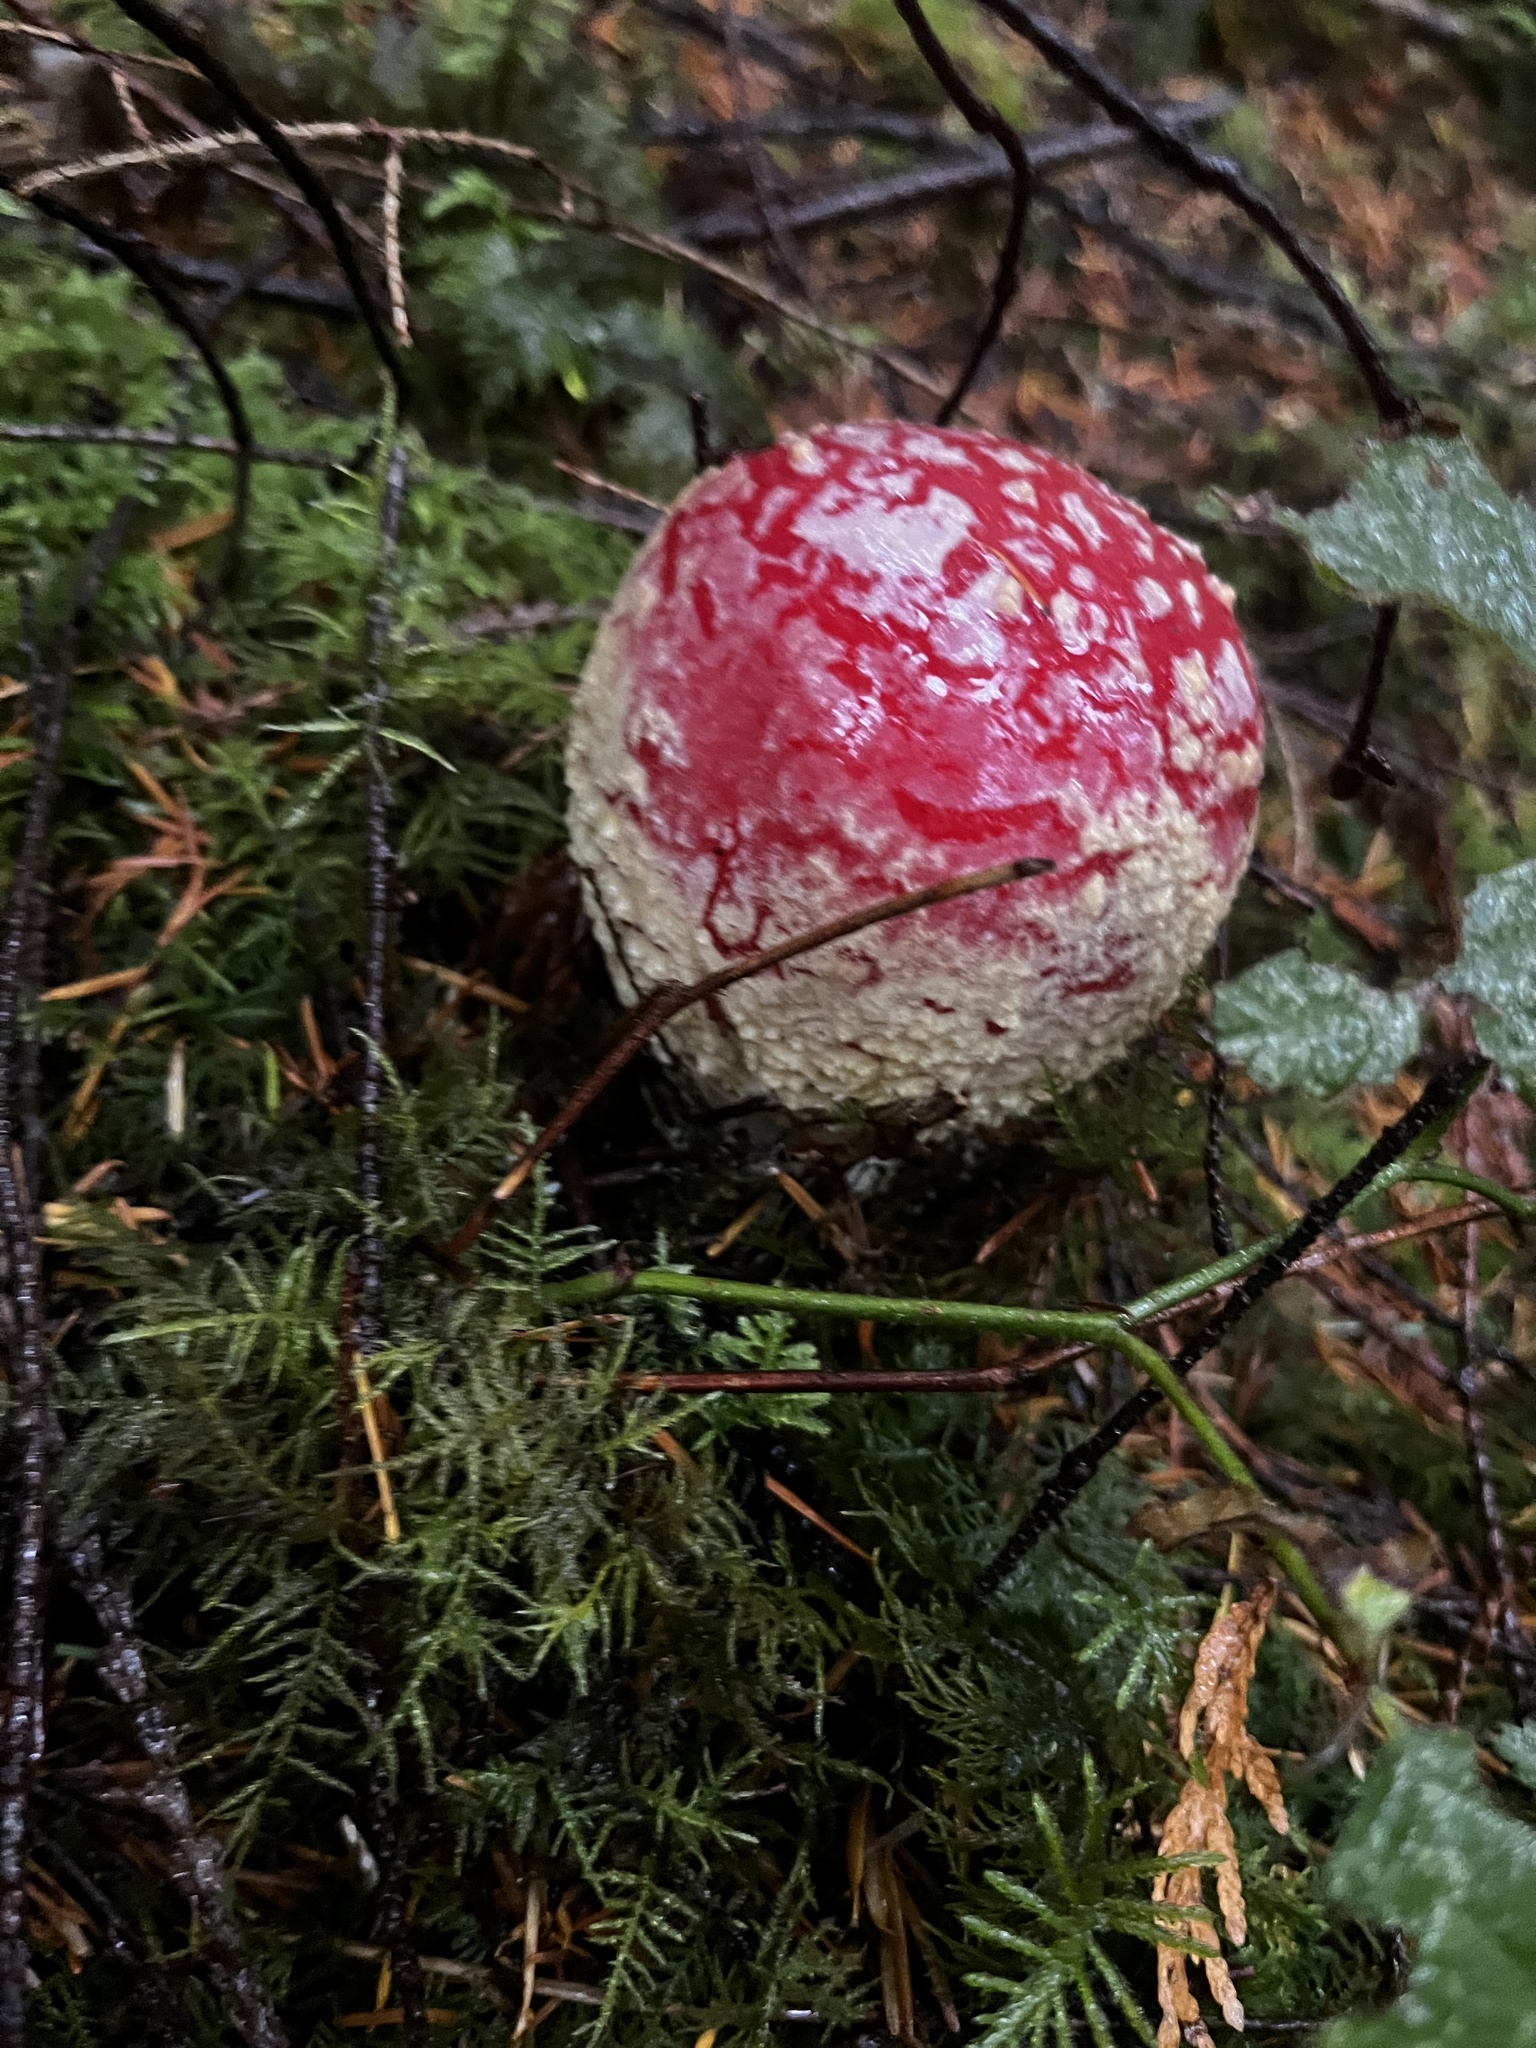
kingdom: Fungi
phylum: Basidiomycota
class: Agaricomycetes
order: Agaricales
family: Amanitaceae
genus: Amanita
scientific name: Amanita muscaria
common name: Fly agaric
